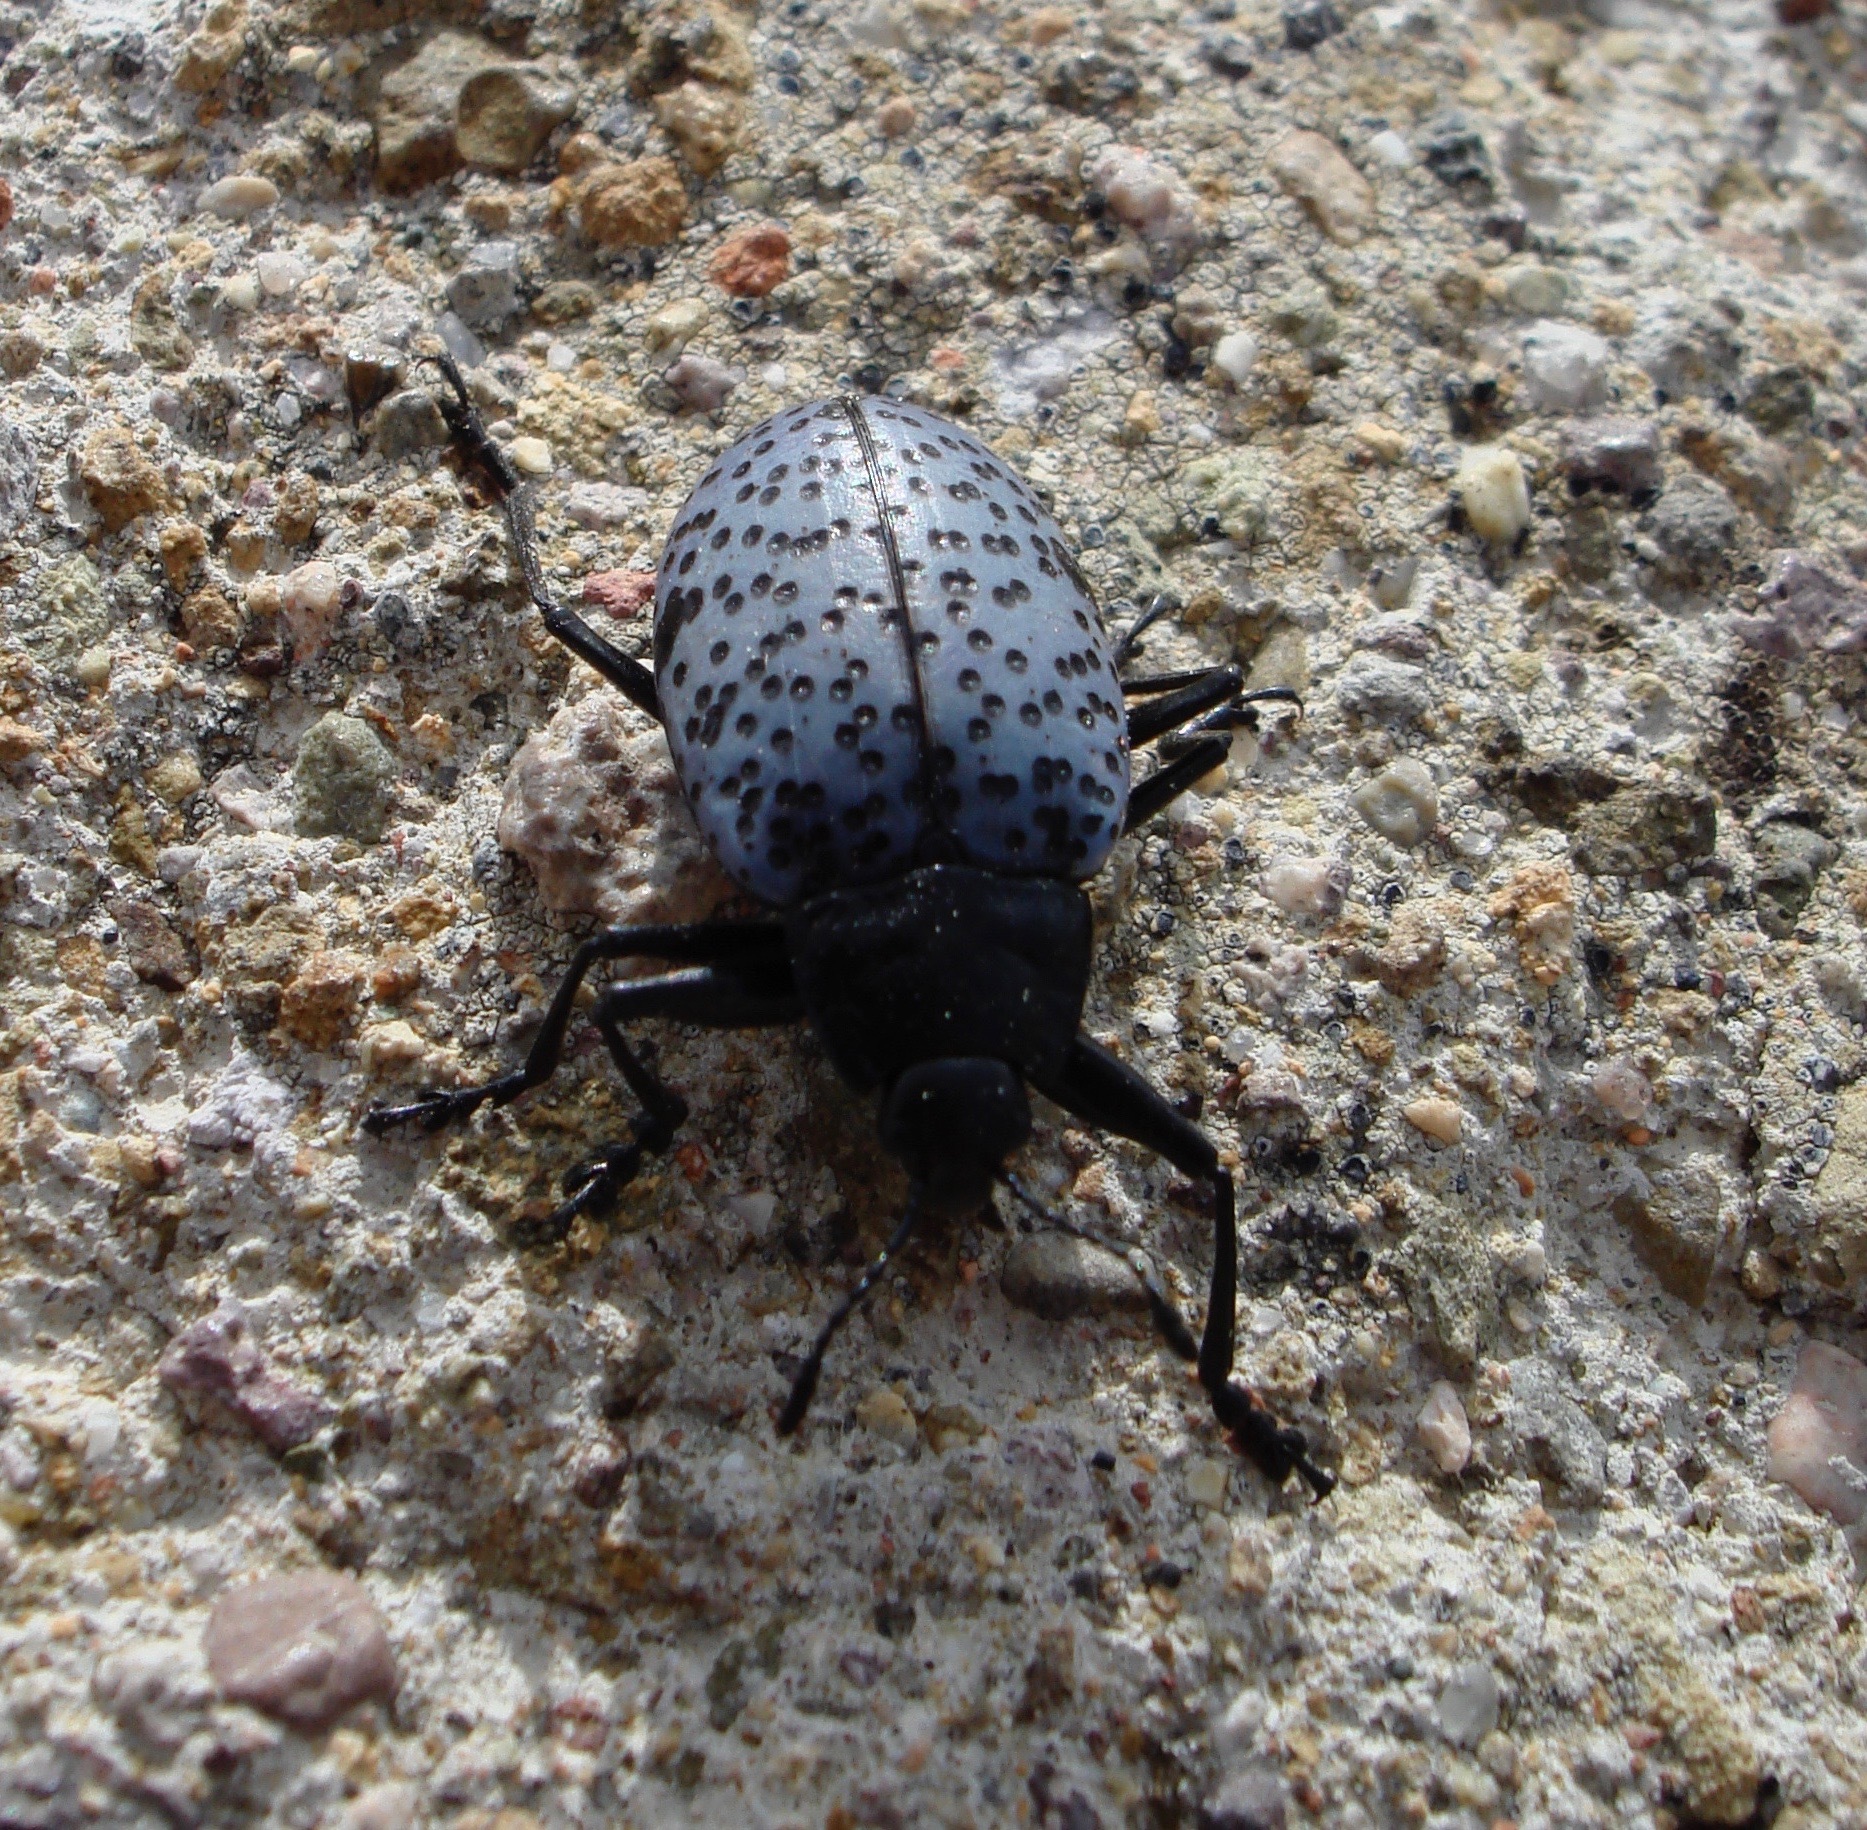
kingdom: Animalia
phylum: Arthropoda
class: Insecta
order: Coleoptera
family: Erotylidae
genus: Gibbifer
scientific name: Gibbifer californicus
